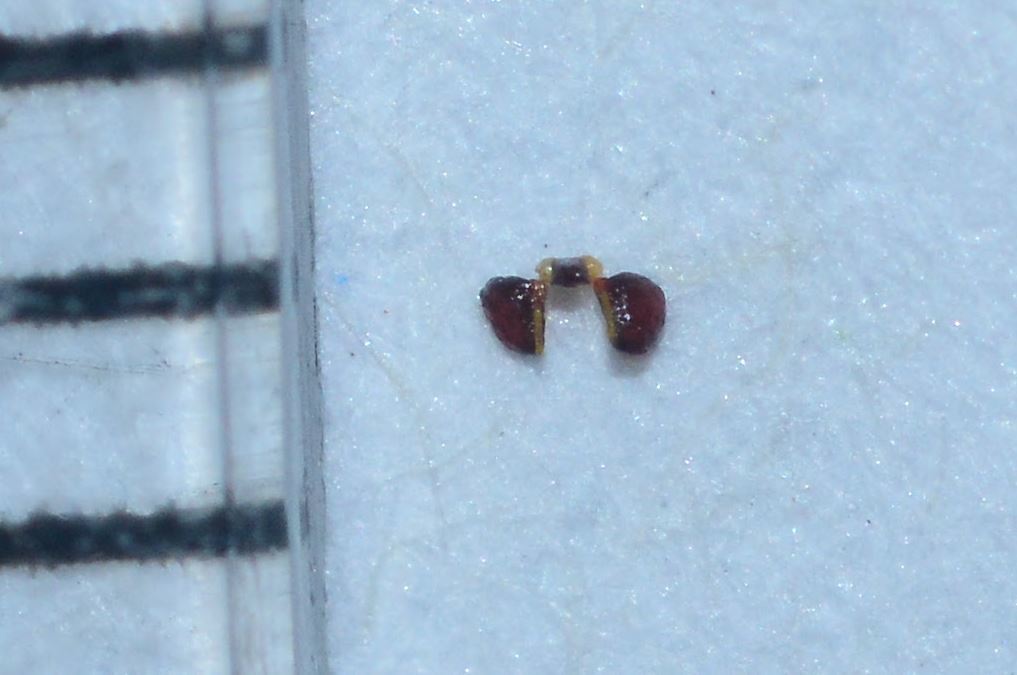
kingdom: Plantae
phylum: Tracheophyta
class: Magnoliopsida
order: Gentianales
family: Apocynaceae
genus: Ceropegia
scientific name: Ceropegia frerei
